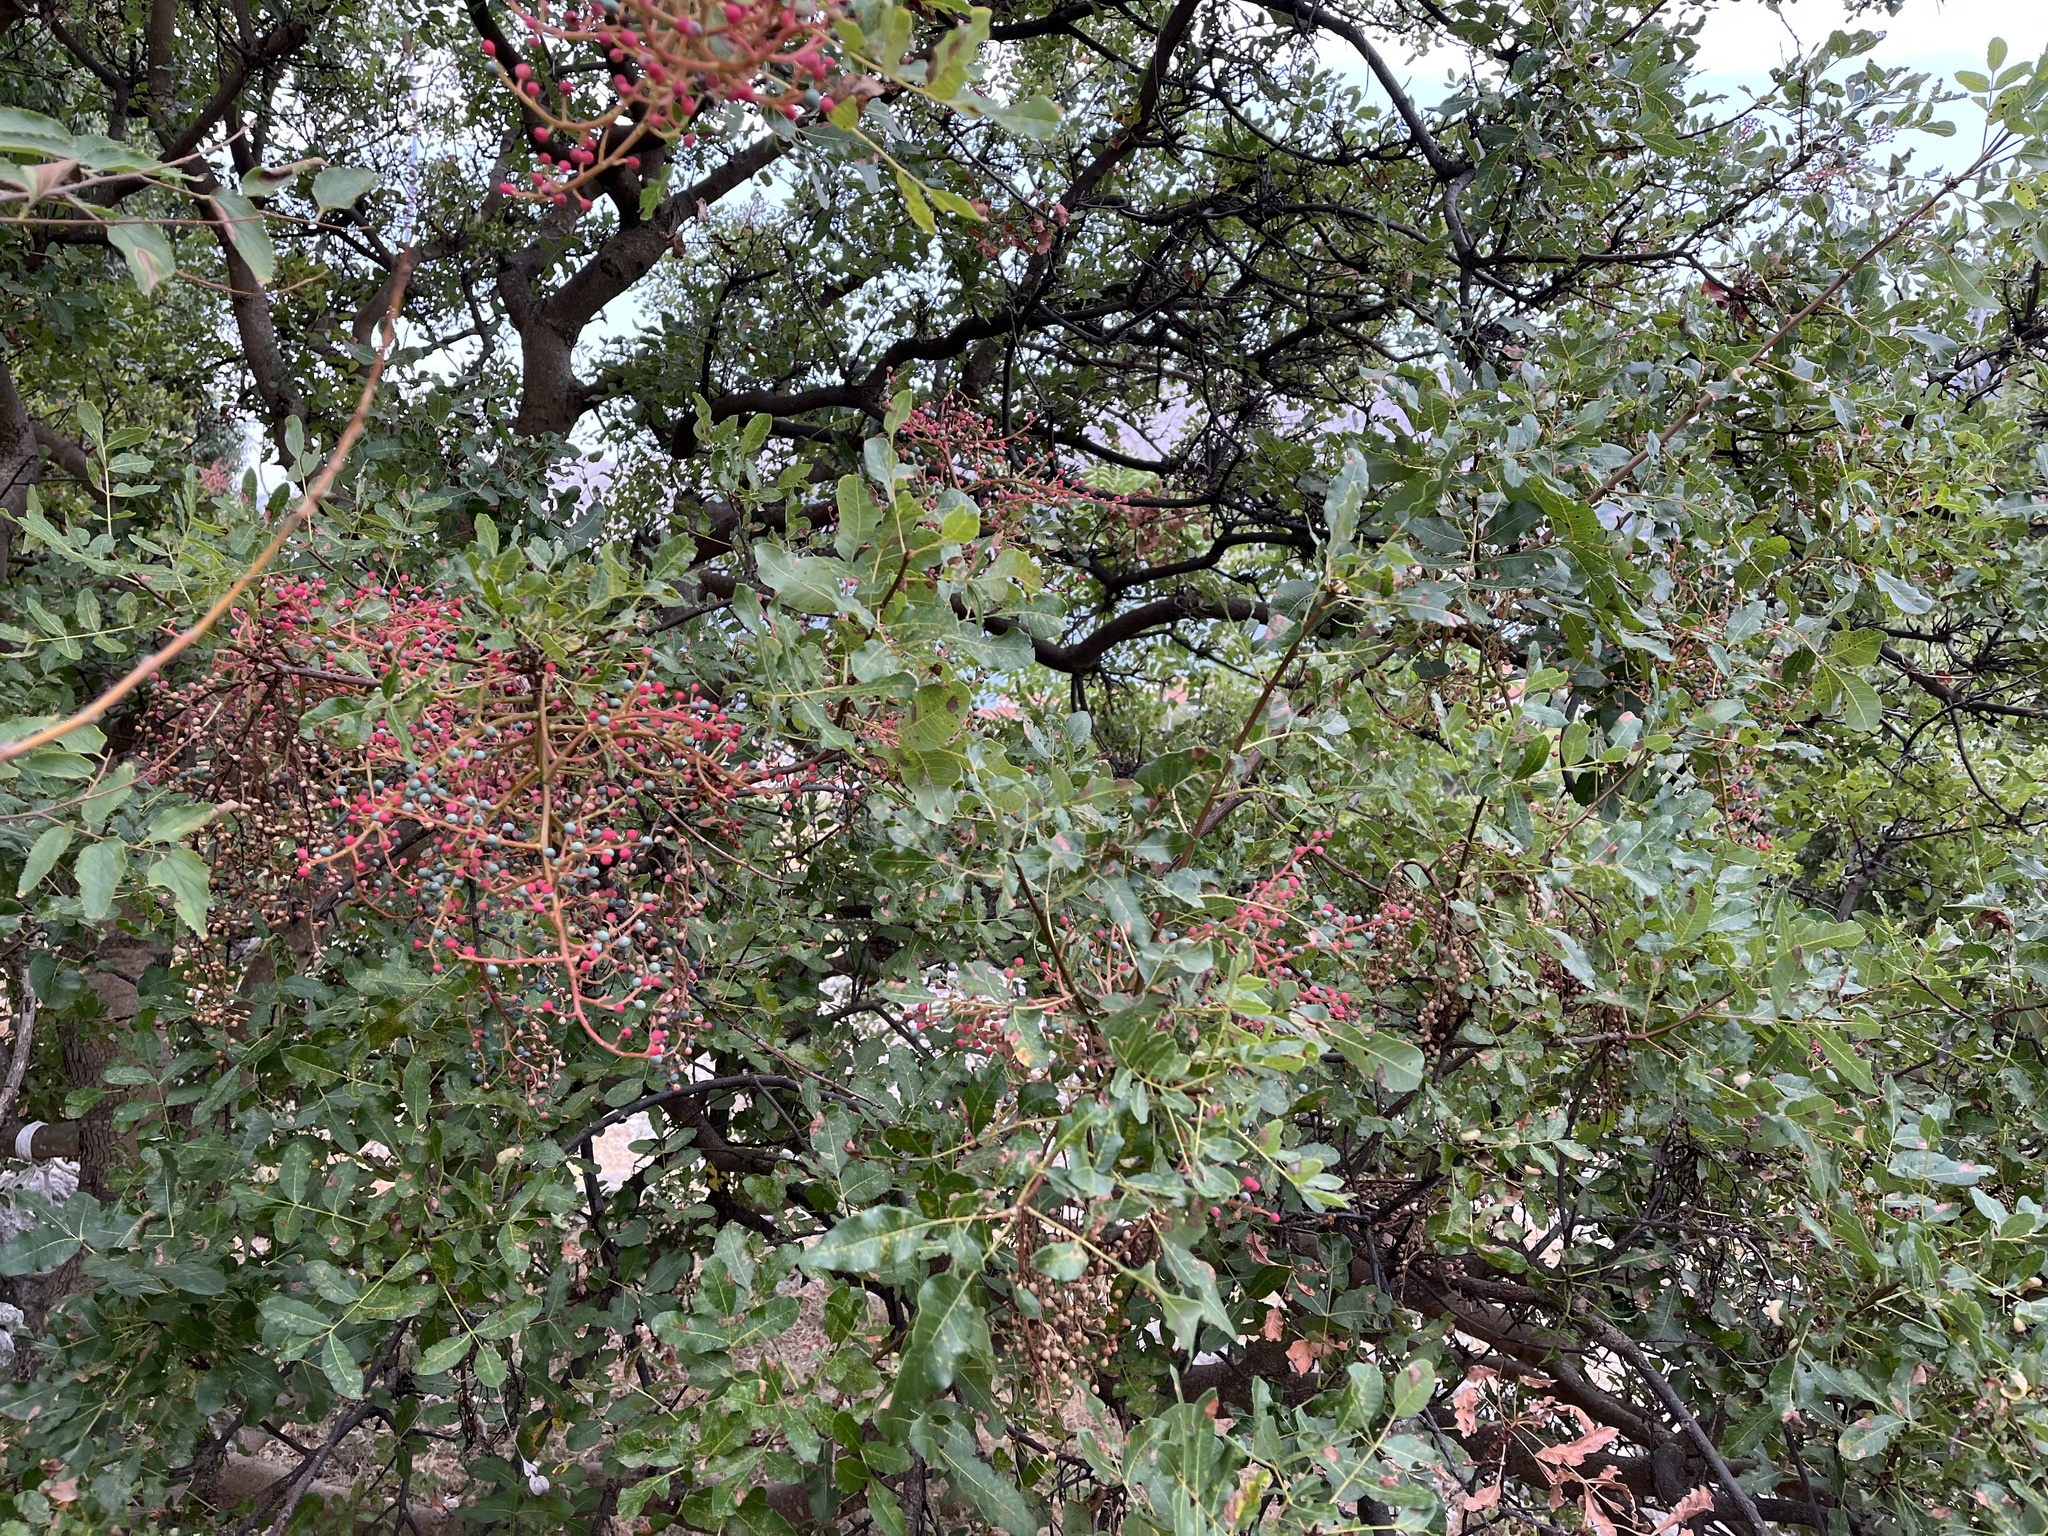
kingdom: Plantae
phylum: Tracheophyta
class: Magnoliopsida
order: Sapindales
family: Anacardiaceae
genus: Pistacia
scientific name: Pistacia terebinthus
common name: Terebinth
